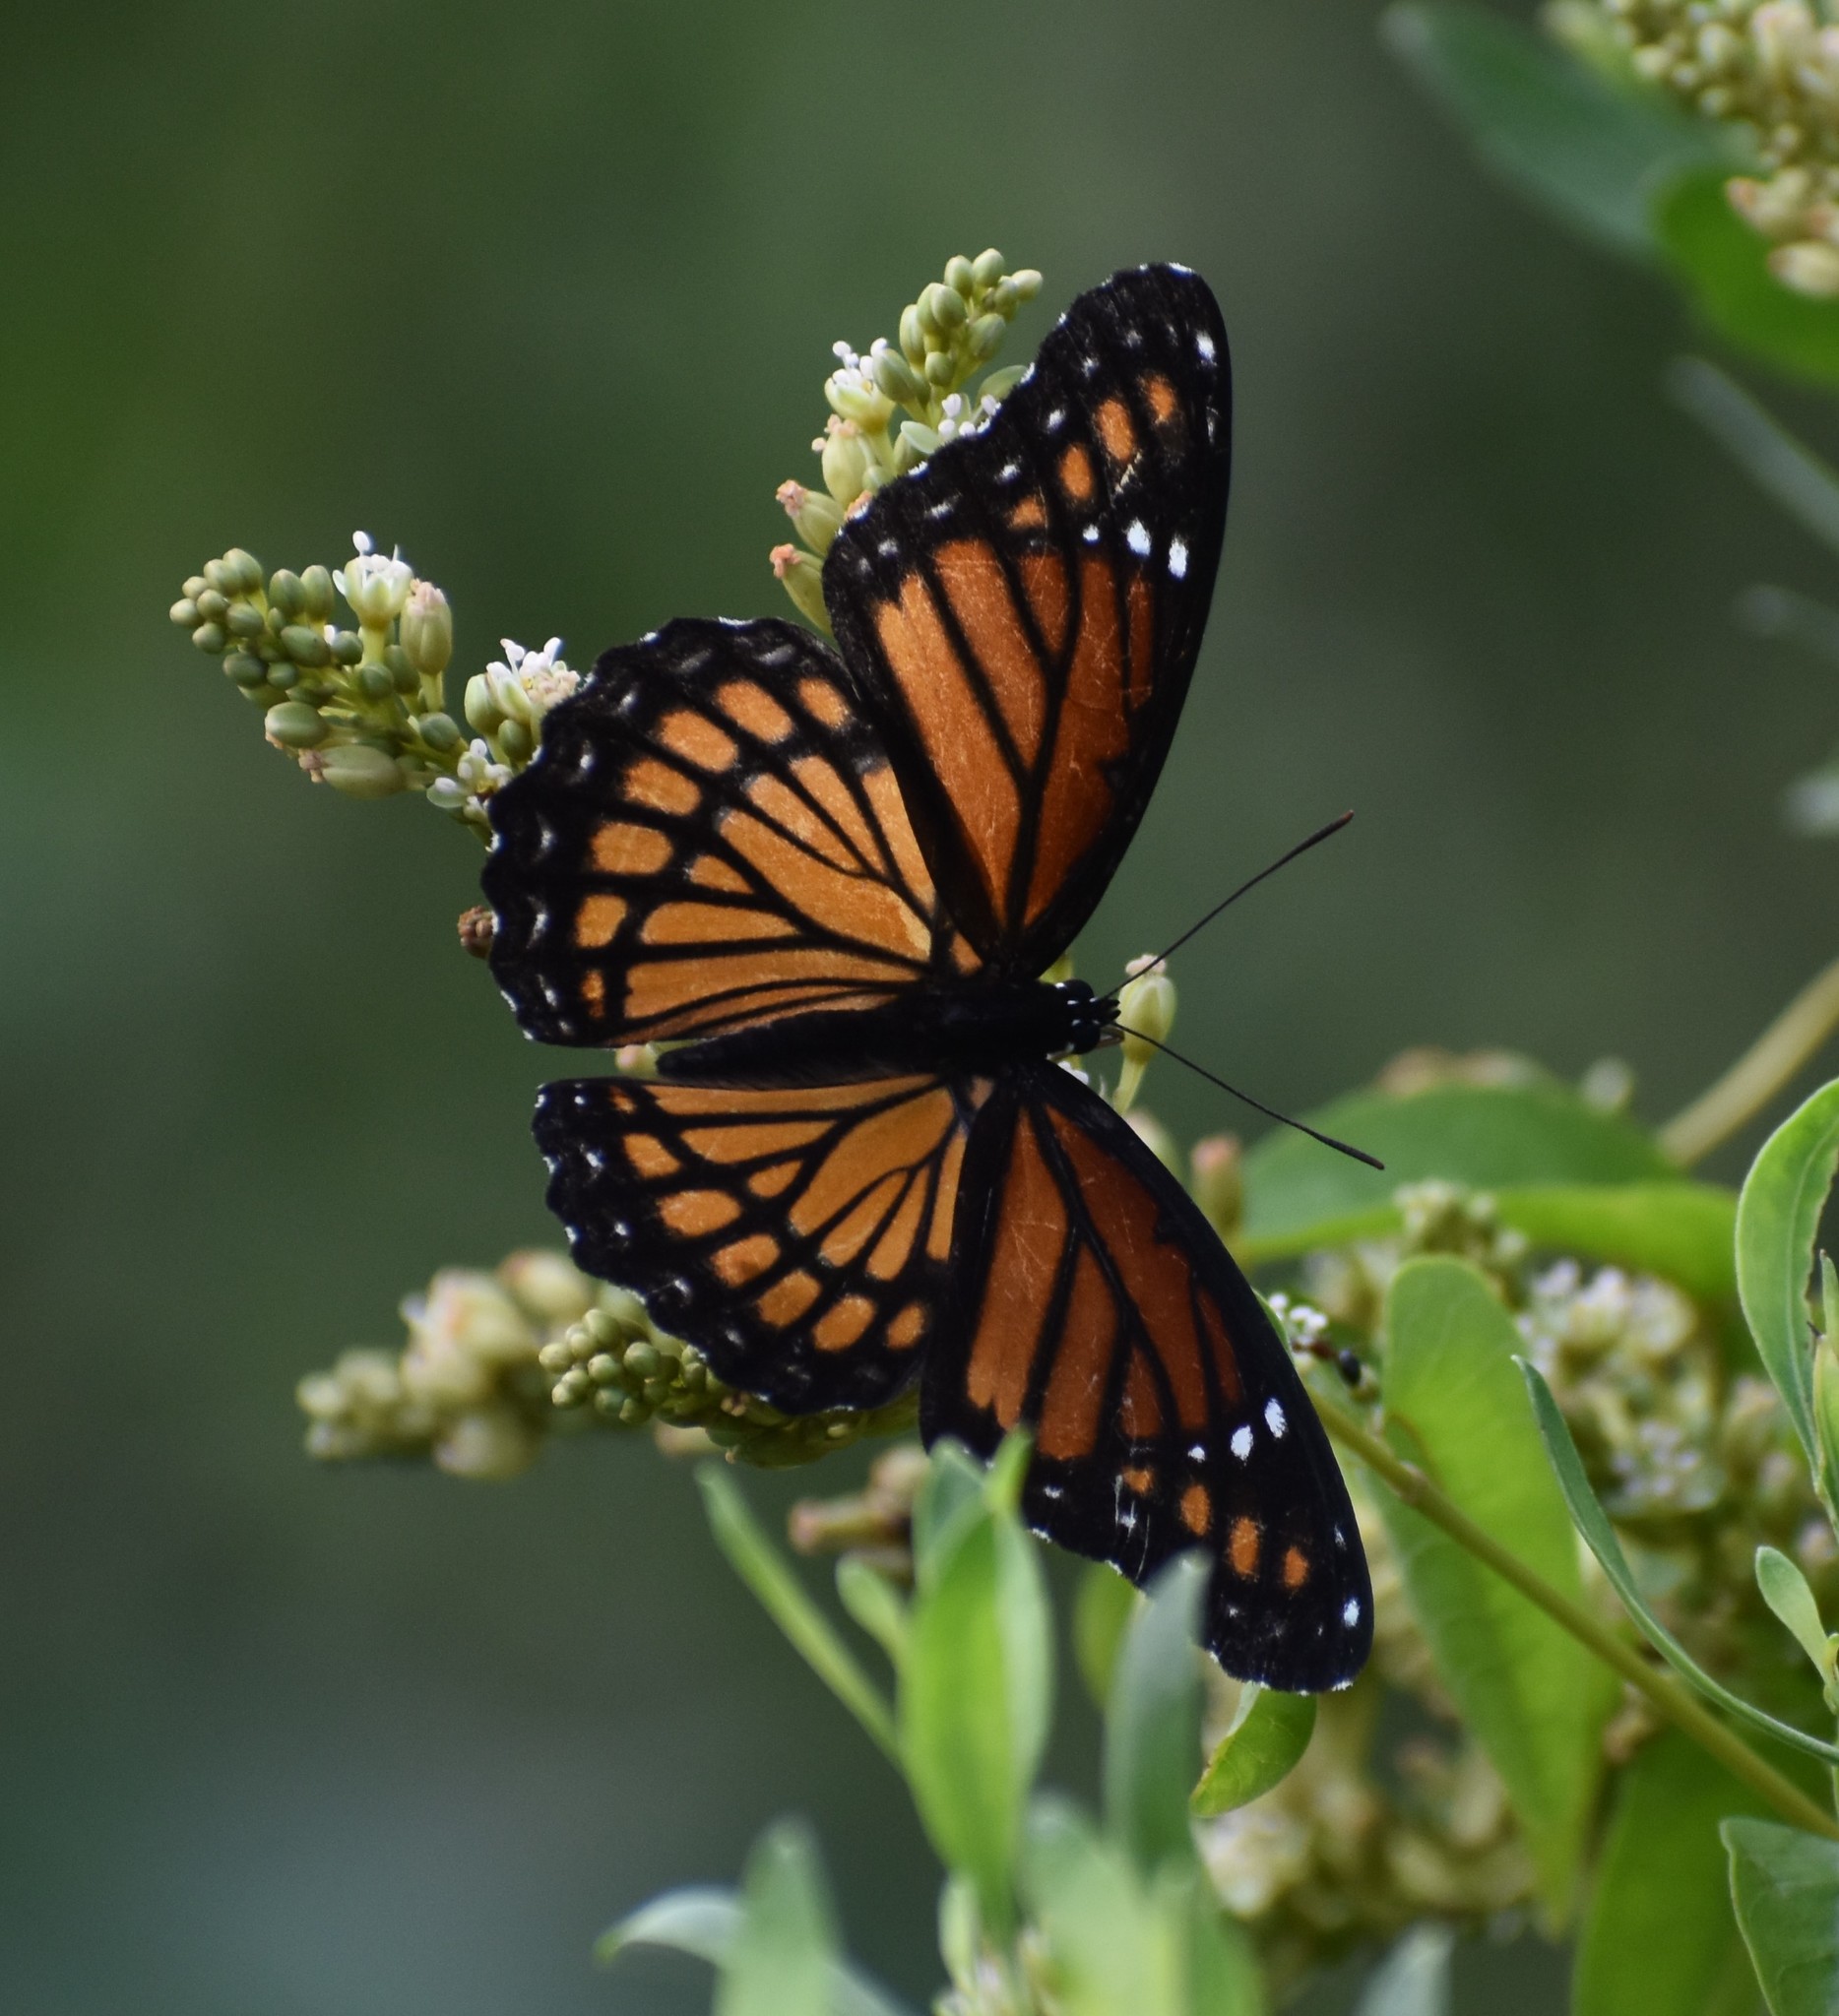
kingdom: Animalia
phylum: Arthropoda
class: Insecta
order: Lepidoptera
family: Nymphalidae
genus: Limenitis
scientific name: Limenitis archippus
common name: Viceroy
